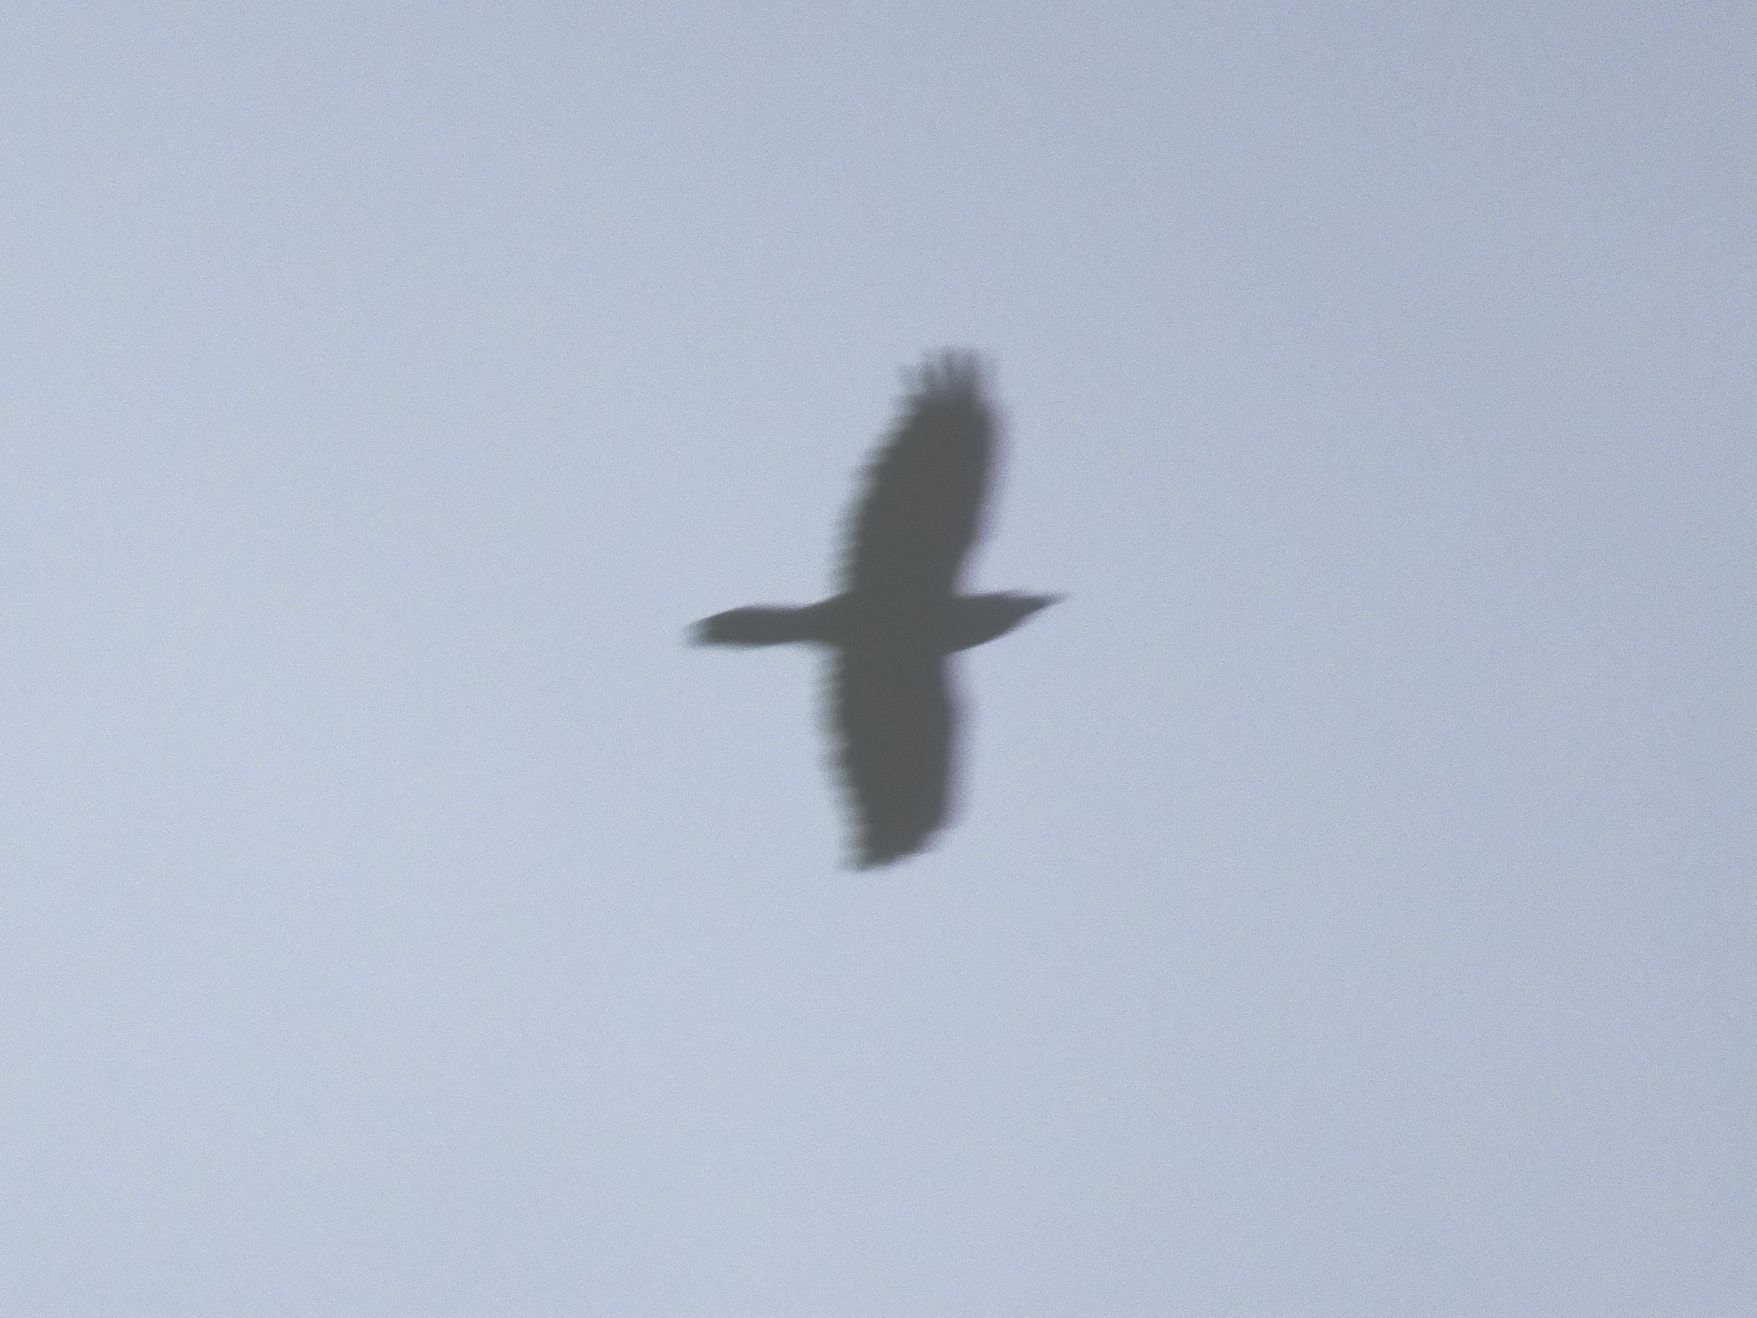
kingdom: Animalia
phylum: Chordata
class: Aves
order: Passeriformes
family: Corvidae
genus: Corvus
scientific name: Corvus corax
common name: Common raven
